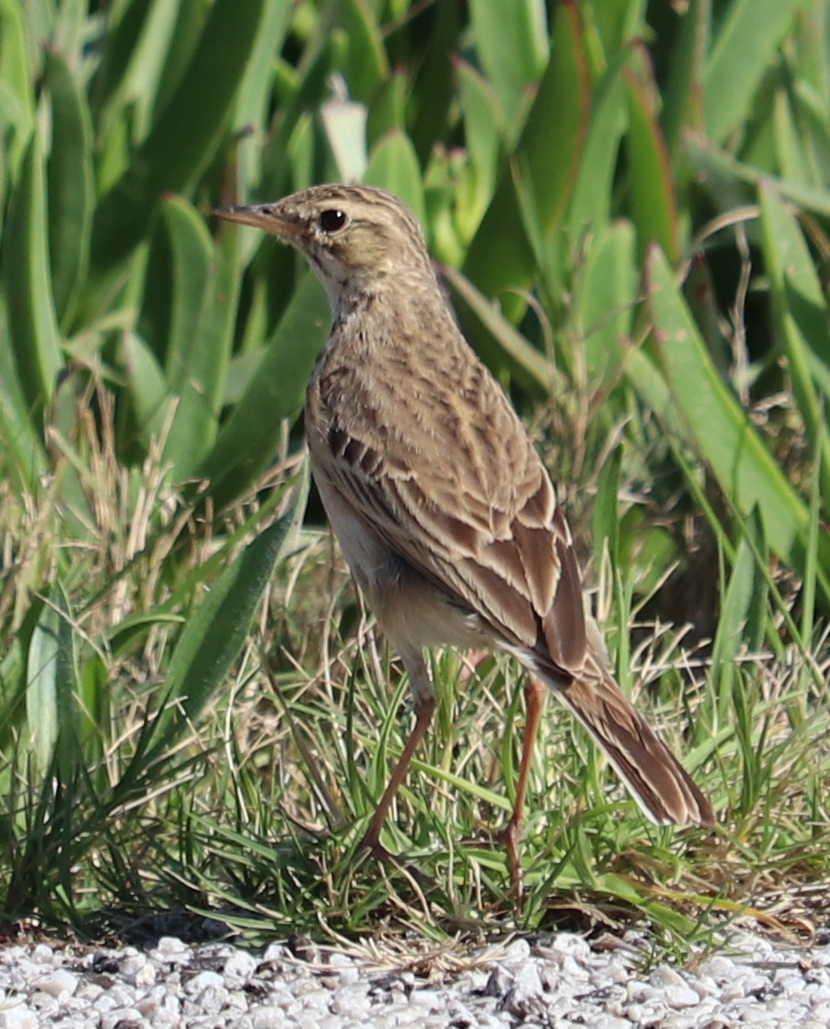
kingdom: Animalia
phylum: Chordata
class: Aves
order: Passeriformes
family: Motacillidae
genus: Anthus
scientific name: Anthus cinnamomeus
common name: African pipit
